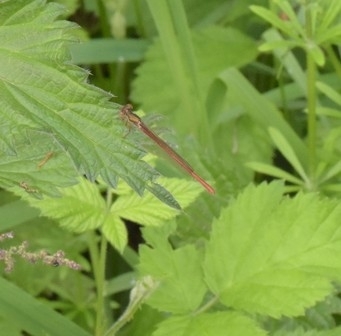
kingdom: Animalia
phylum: Arthropoda
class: Insecta
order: Odonata
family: Coenagrionidae
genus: Ceriagrion
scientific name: Ceriagrion tenellum
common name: Small red damselfly
